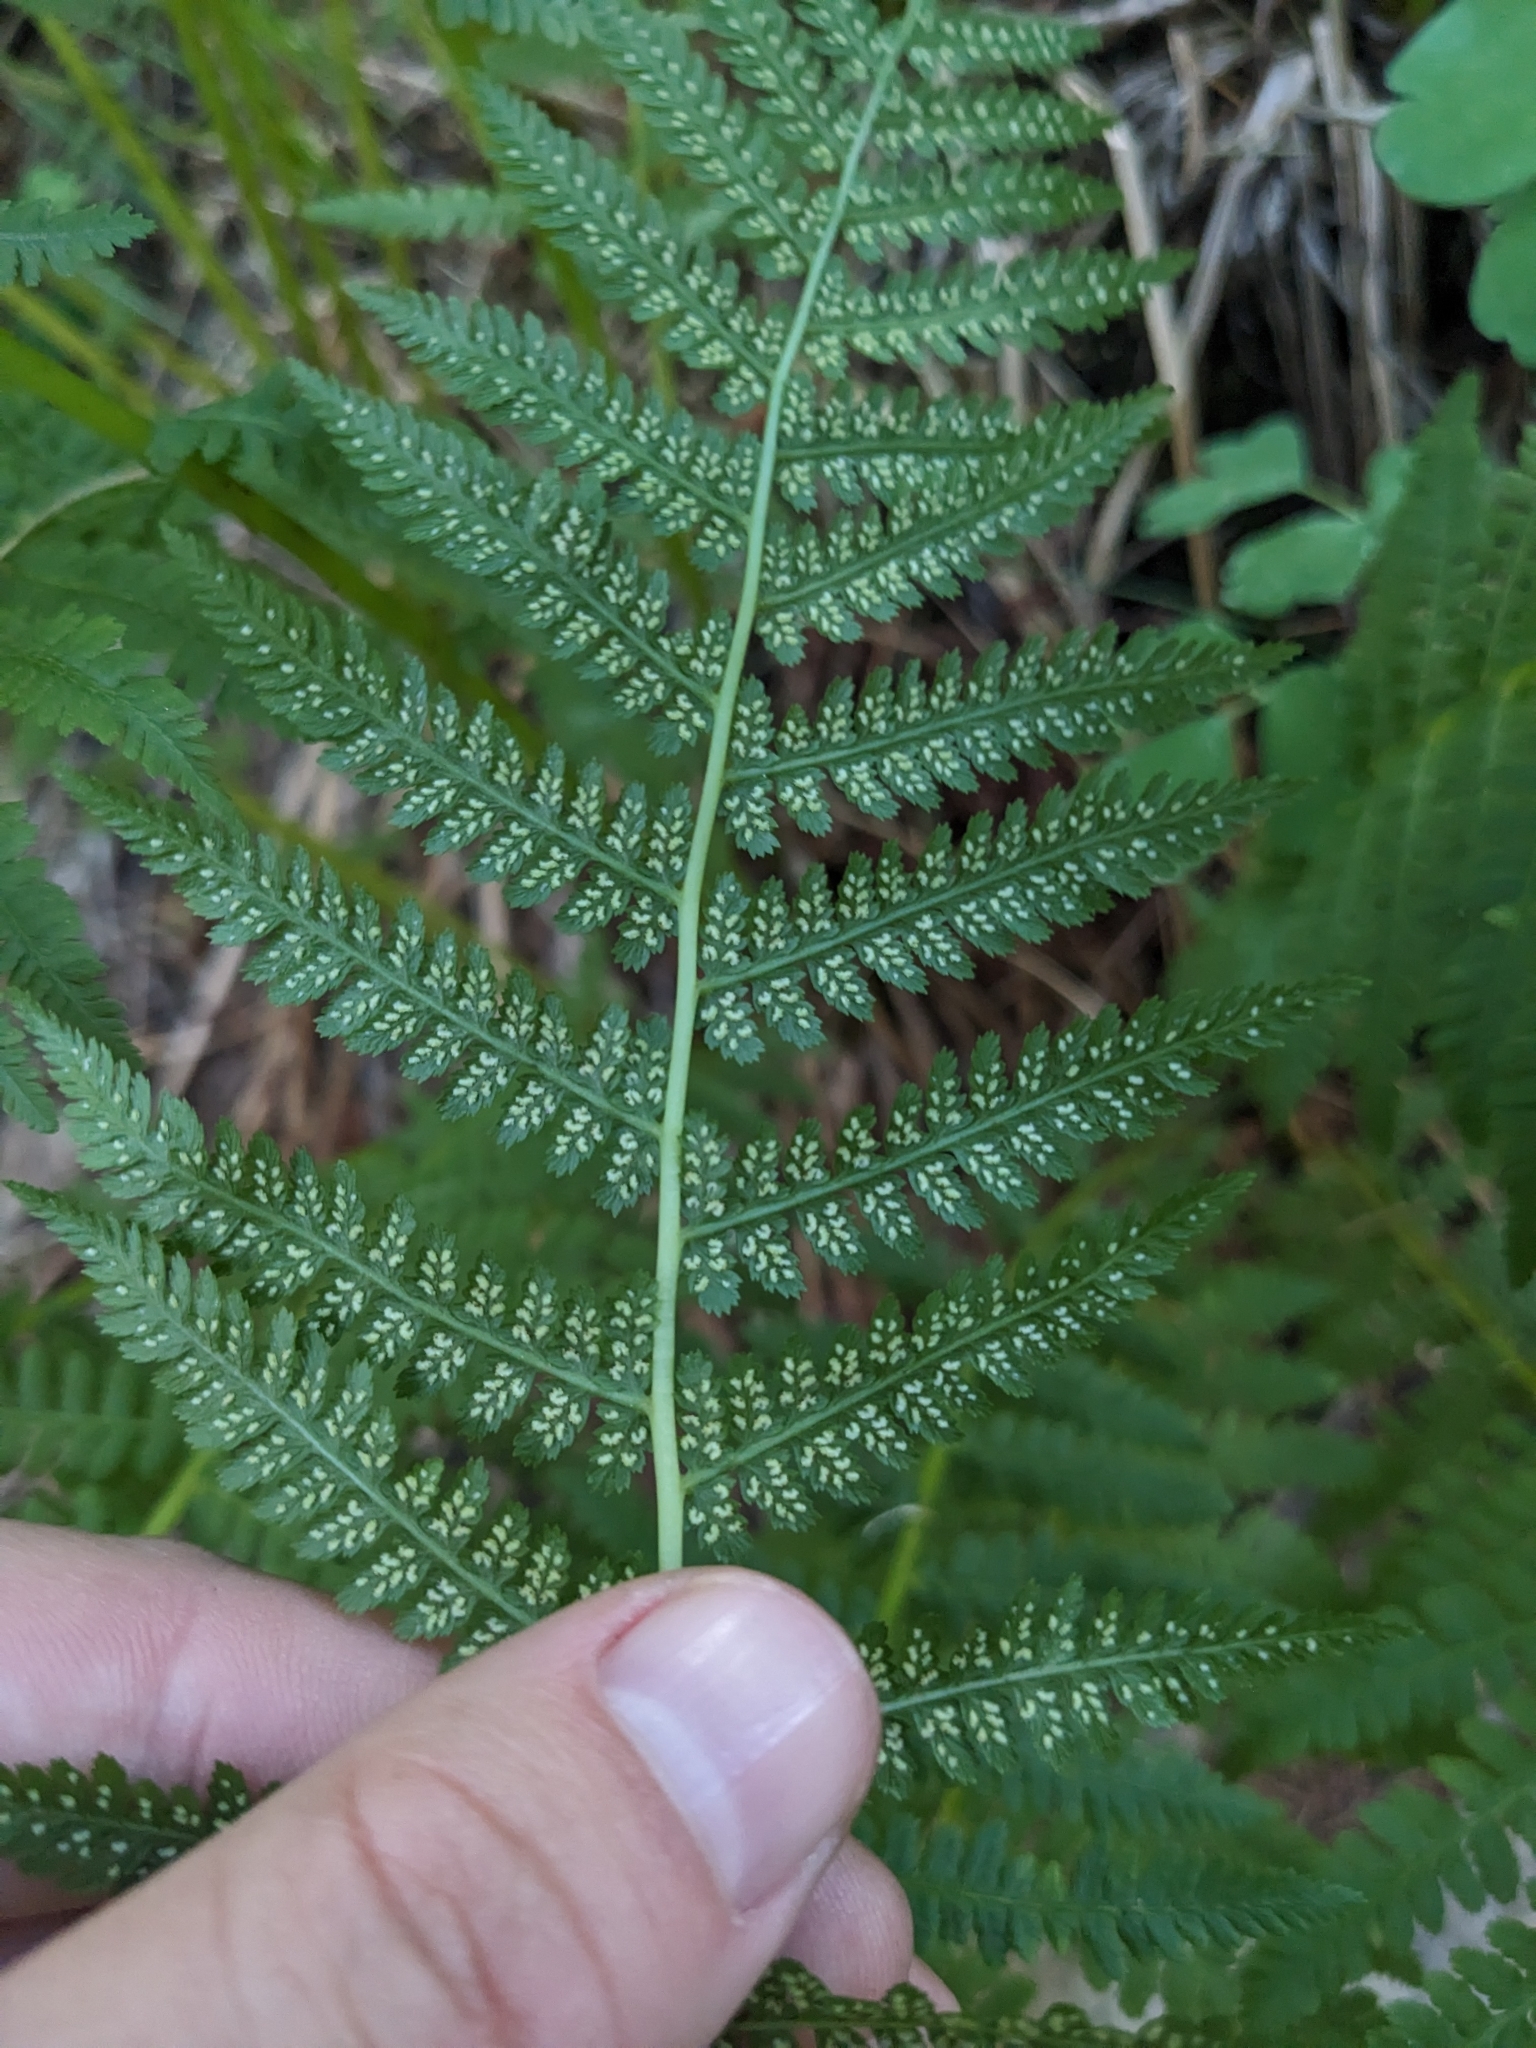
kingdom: Plantae
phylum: Tracheophyta
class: Polypodiopsida
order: Polypodiales
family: Athyriaceae
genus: Athyrium
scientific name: Athyrium filix-femina
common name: Lady fern
